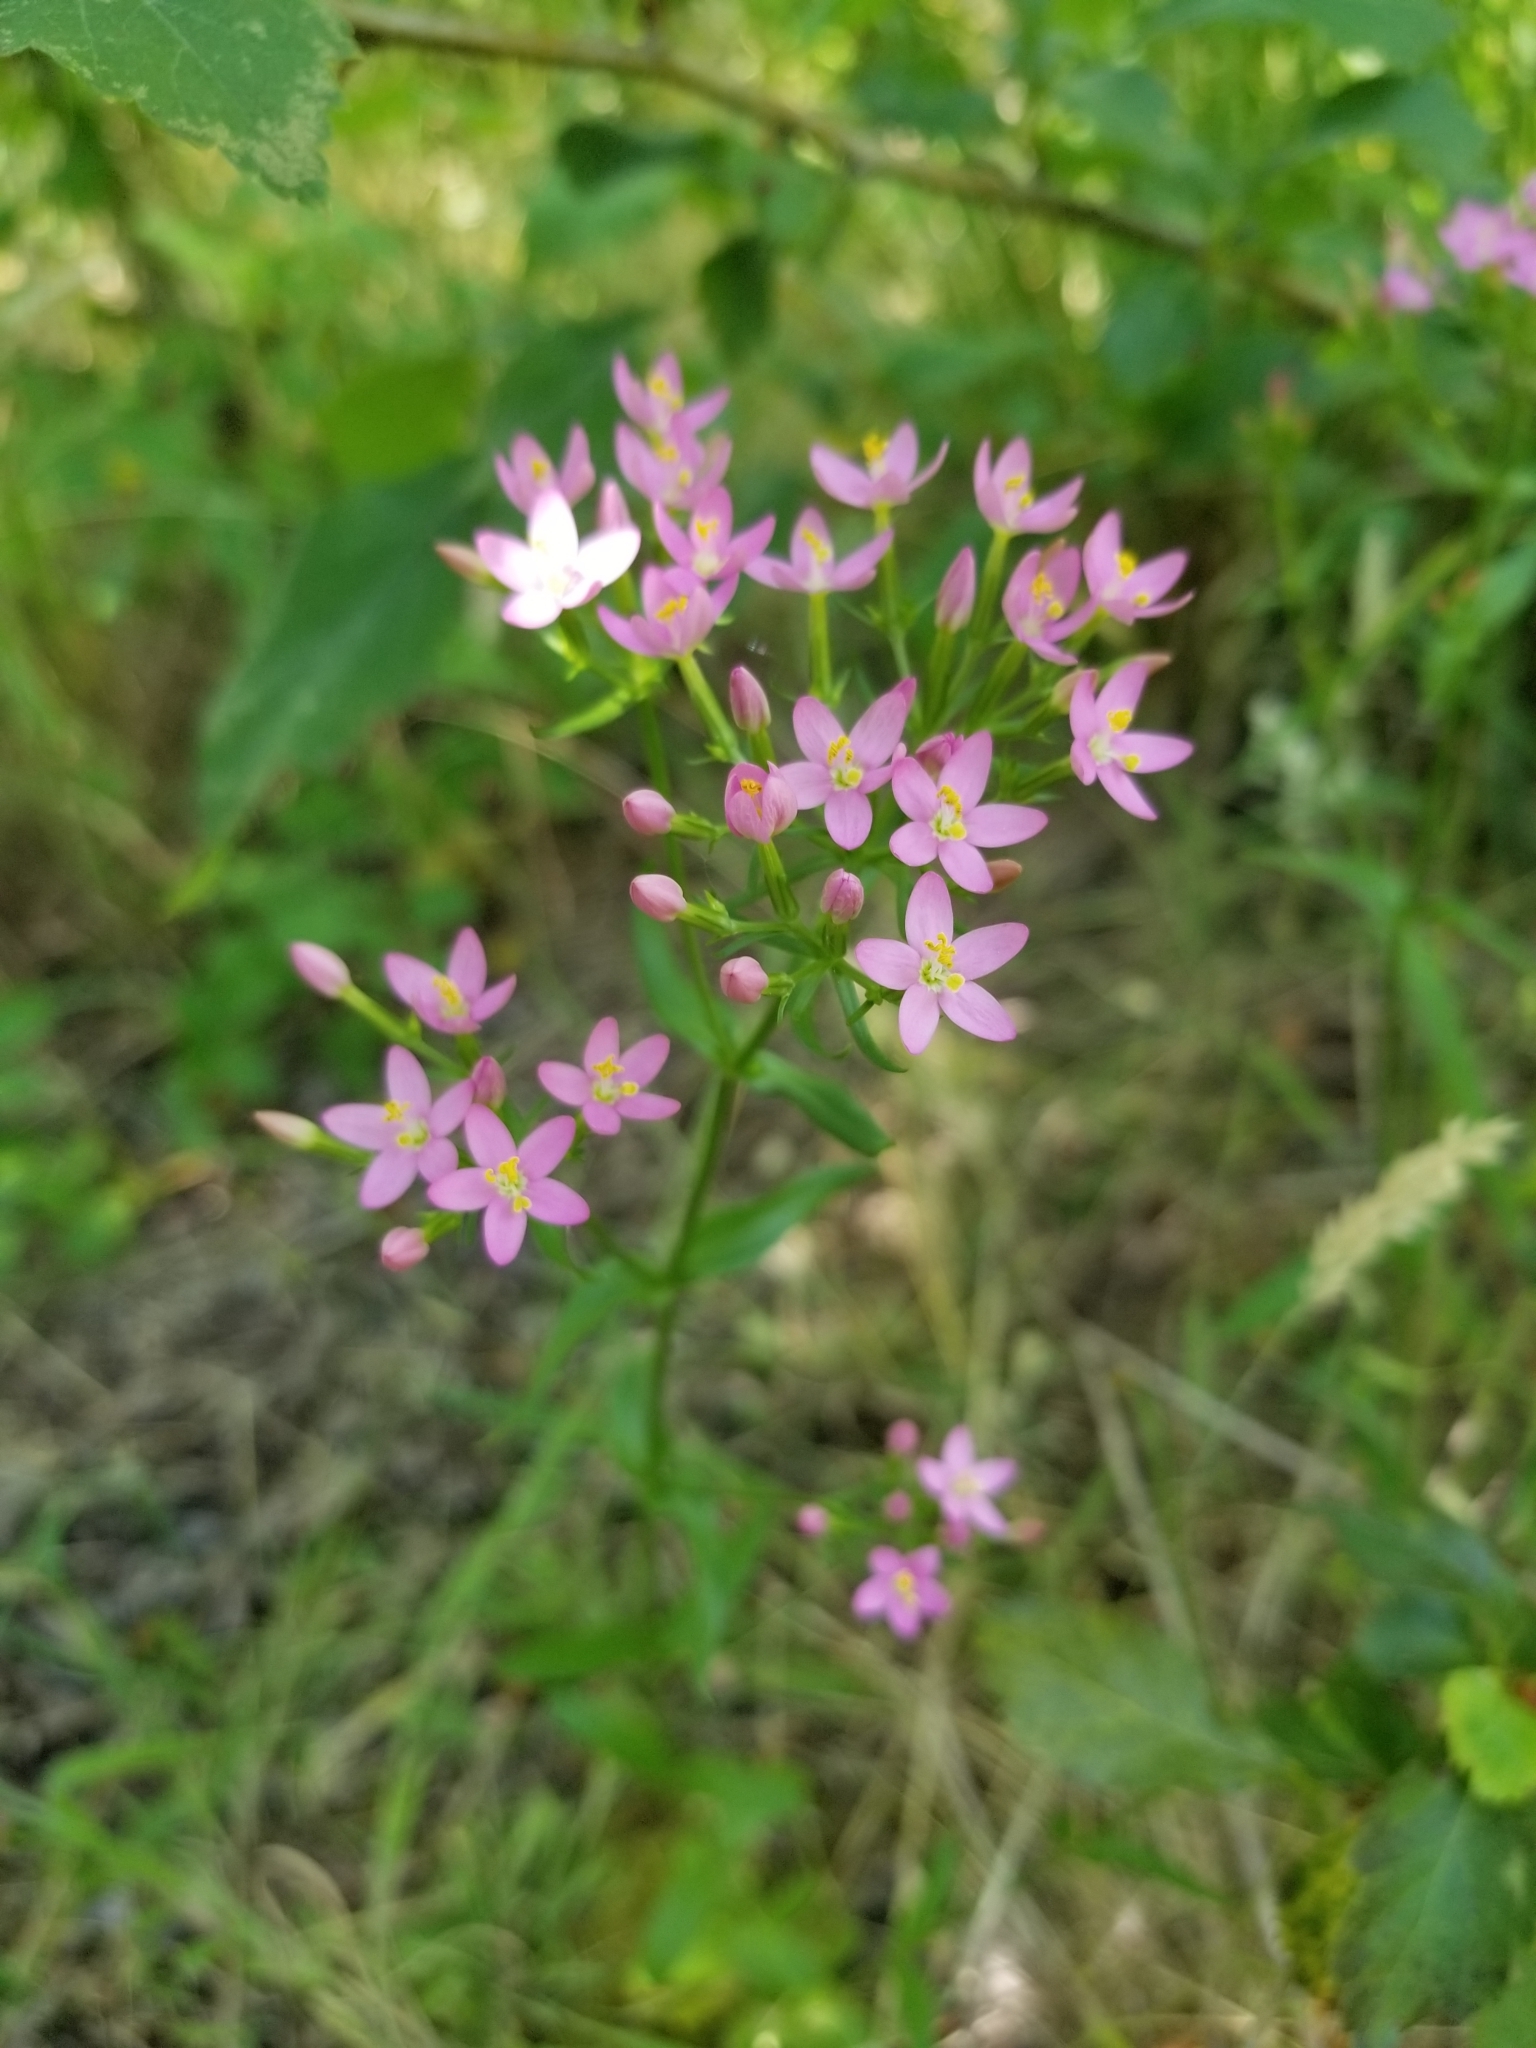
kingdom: Plantae
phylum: Tracheophyta
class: Magnoliopsida
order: Gentianales
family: Gentianaceae
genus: Centaurium
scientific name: Centaurium erythraea
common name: Common centaury
